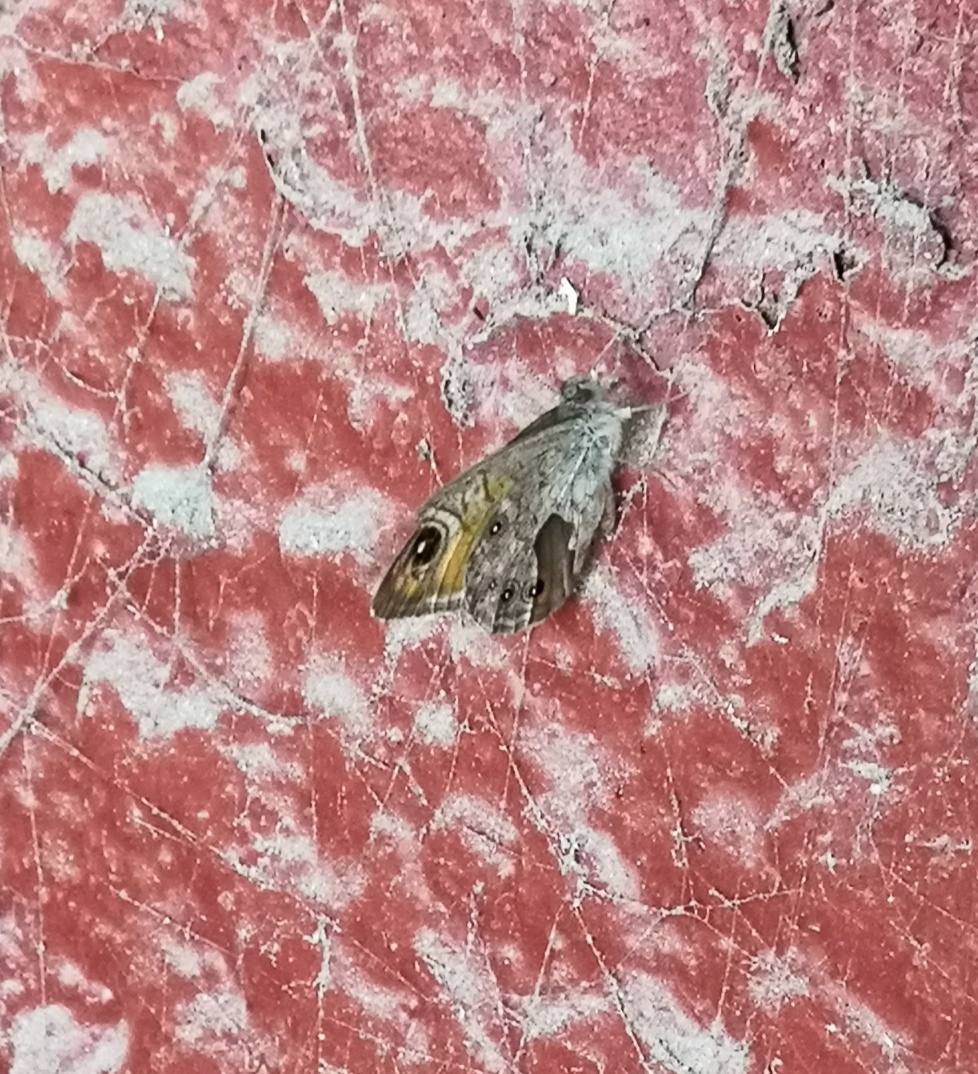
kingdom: Animalia
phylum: Arthropoda
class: Insecta
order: Lepidoptera
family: Nymphalidae
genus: Pararge
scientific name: Pararge Lasiommata maera
